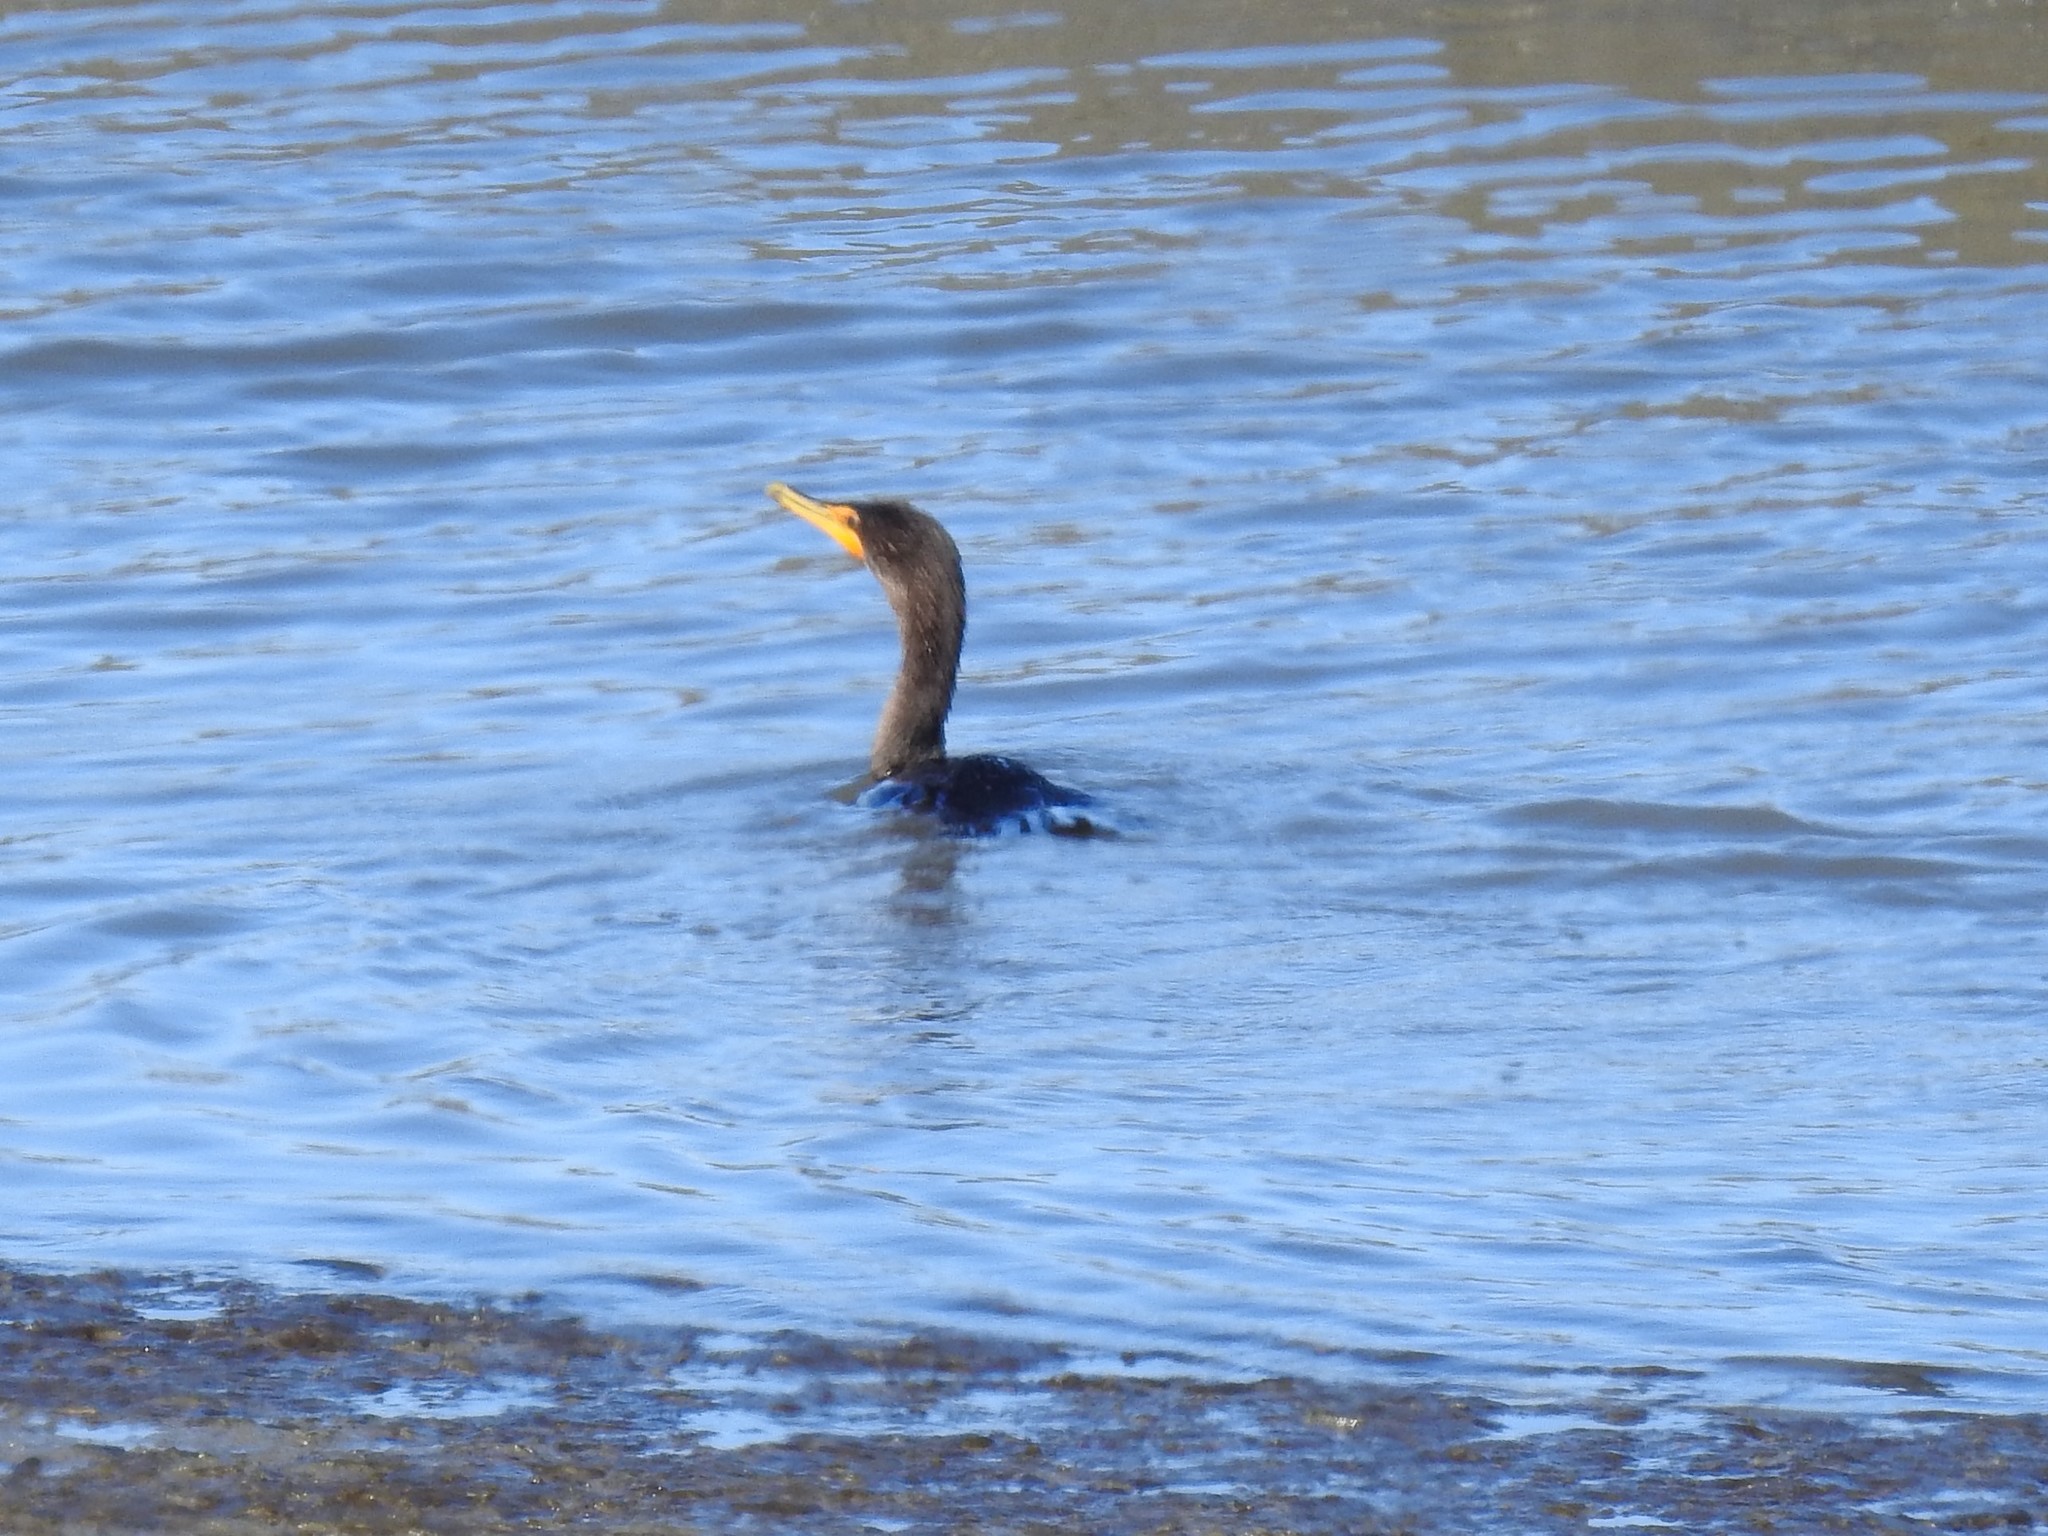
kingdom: Animalia
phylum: Chordata
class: Aves
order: Suliformes
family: Phalacrocoracidae
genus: Phalacrocorax
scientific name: Phalacrocorax auritus
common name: Double-crested cormorant
